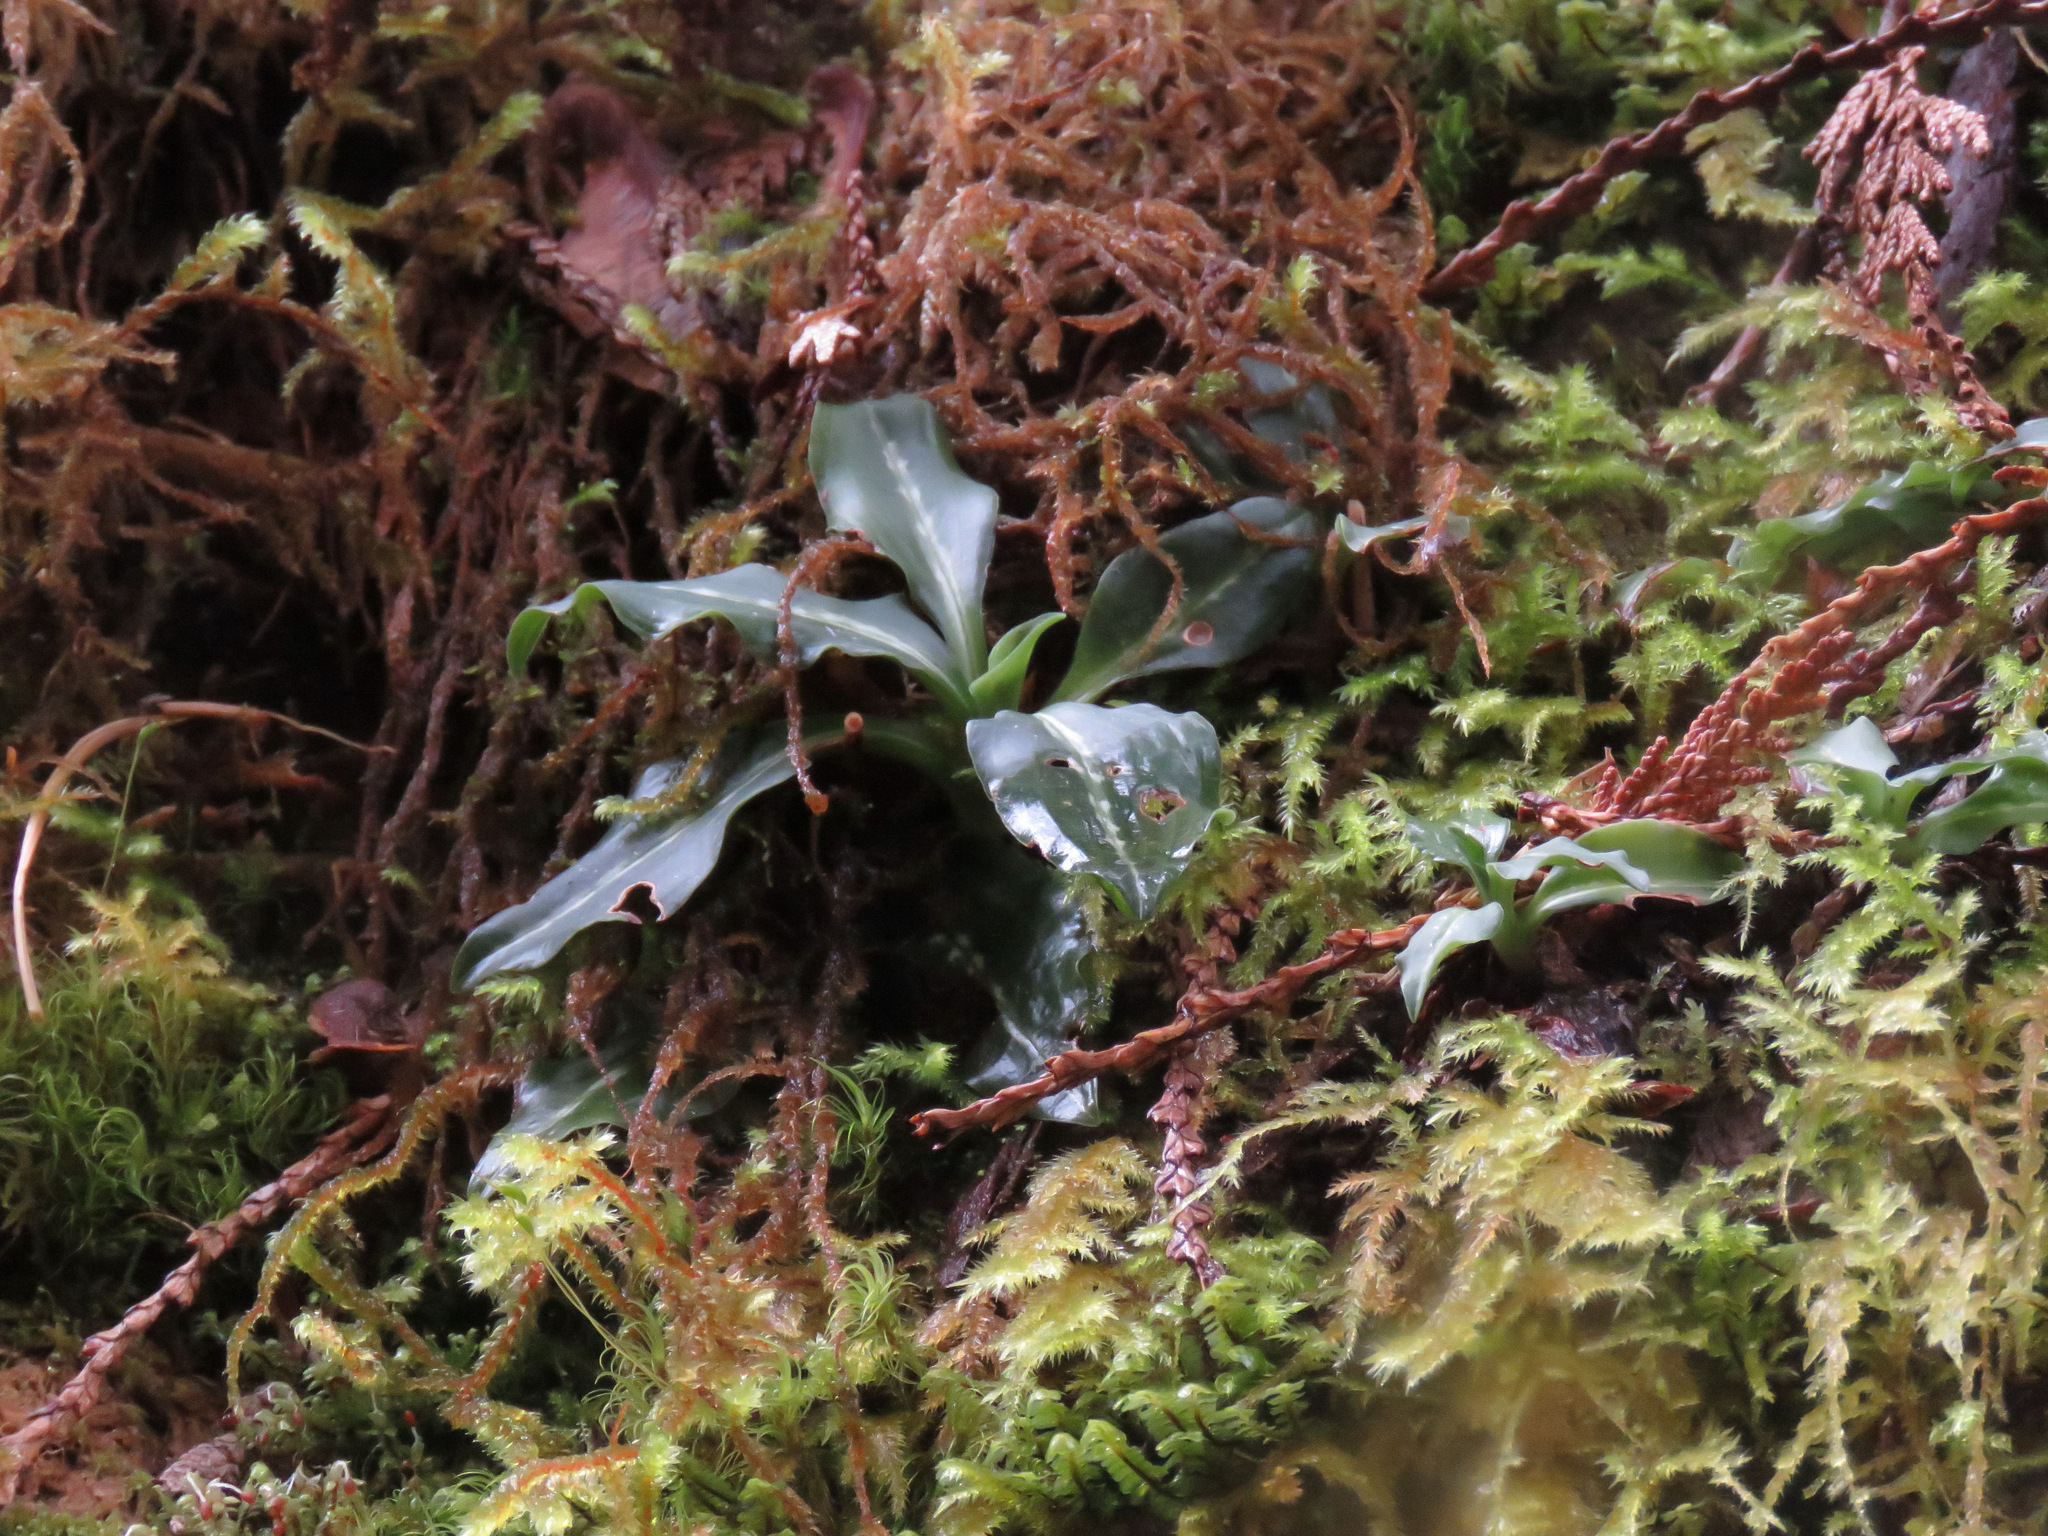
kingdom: Plantae
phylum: Tracheophyta
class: Liliopsida
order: Asparagales
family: Orchidaceae
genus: Goodyera
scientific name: Goodyera oblongifolia
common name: Giant rattlesnake-plantain
